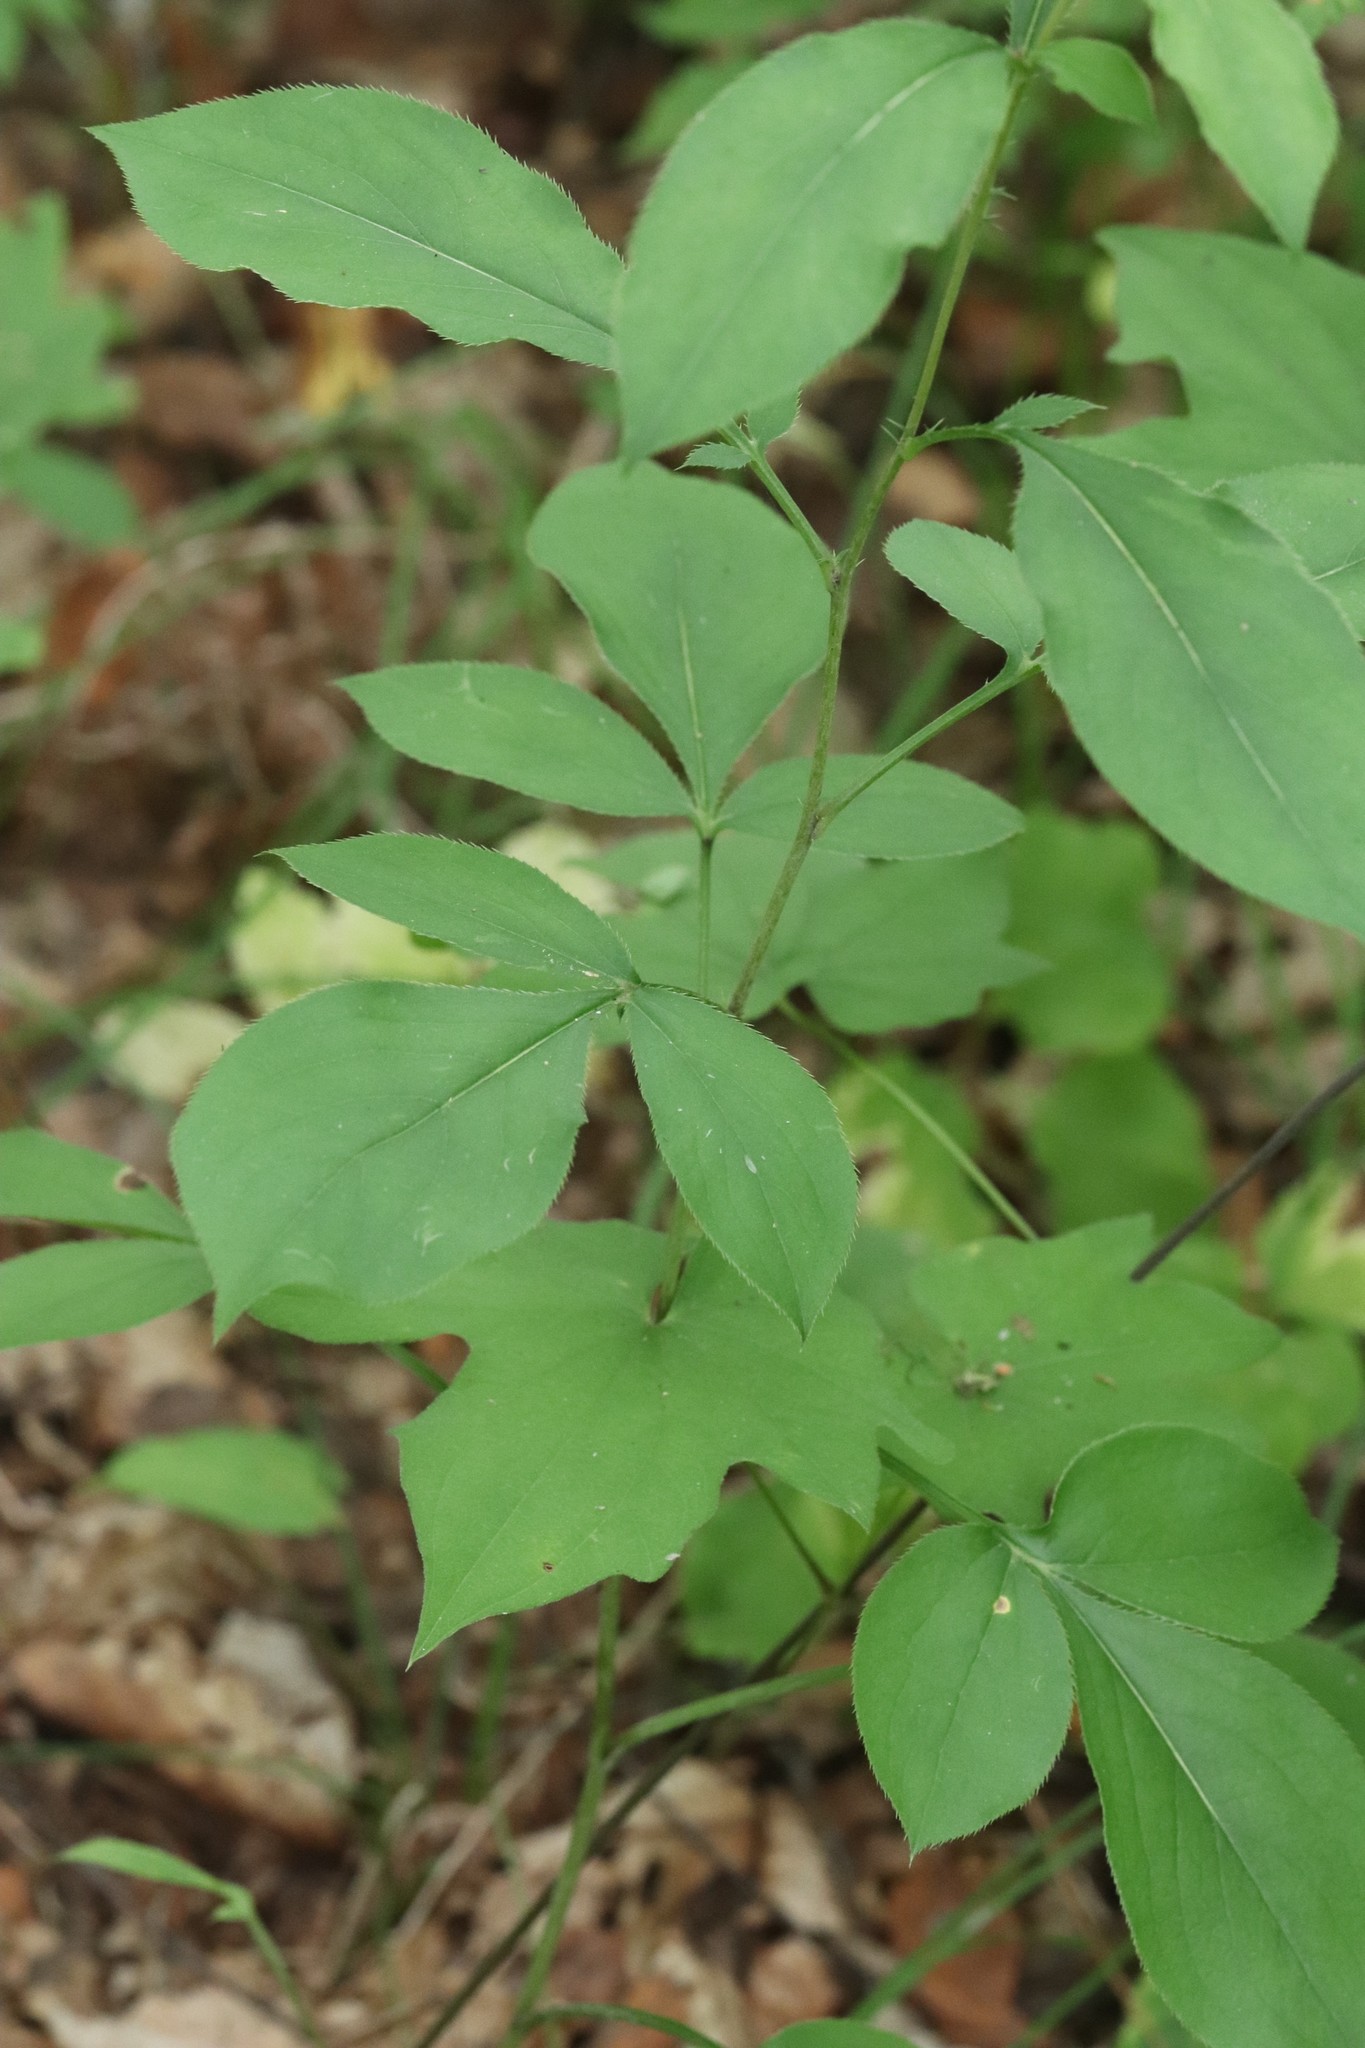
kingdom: Plantae
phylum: Tracheophyta
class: Magnoliopsida
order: Asterales
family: Asteraceae
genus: Atractylodes
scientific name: Atractylodes lancea
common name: Southern tsangshu
